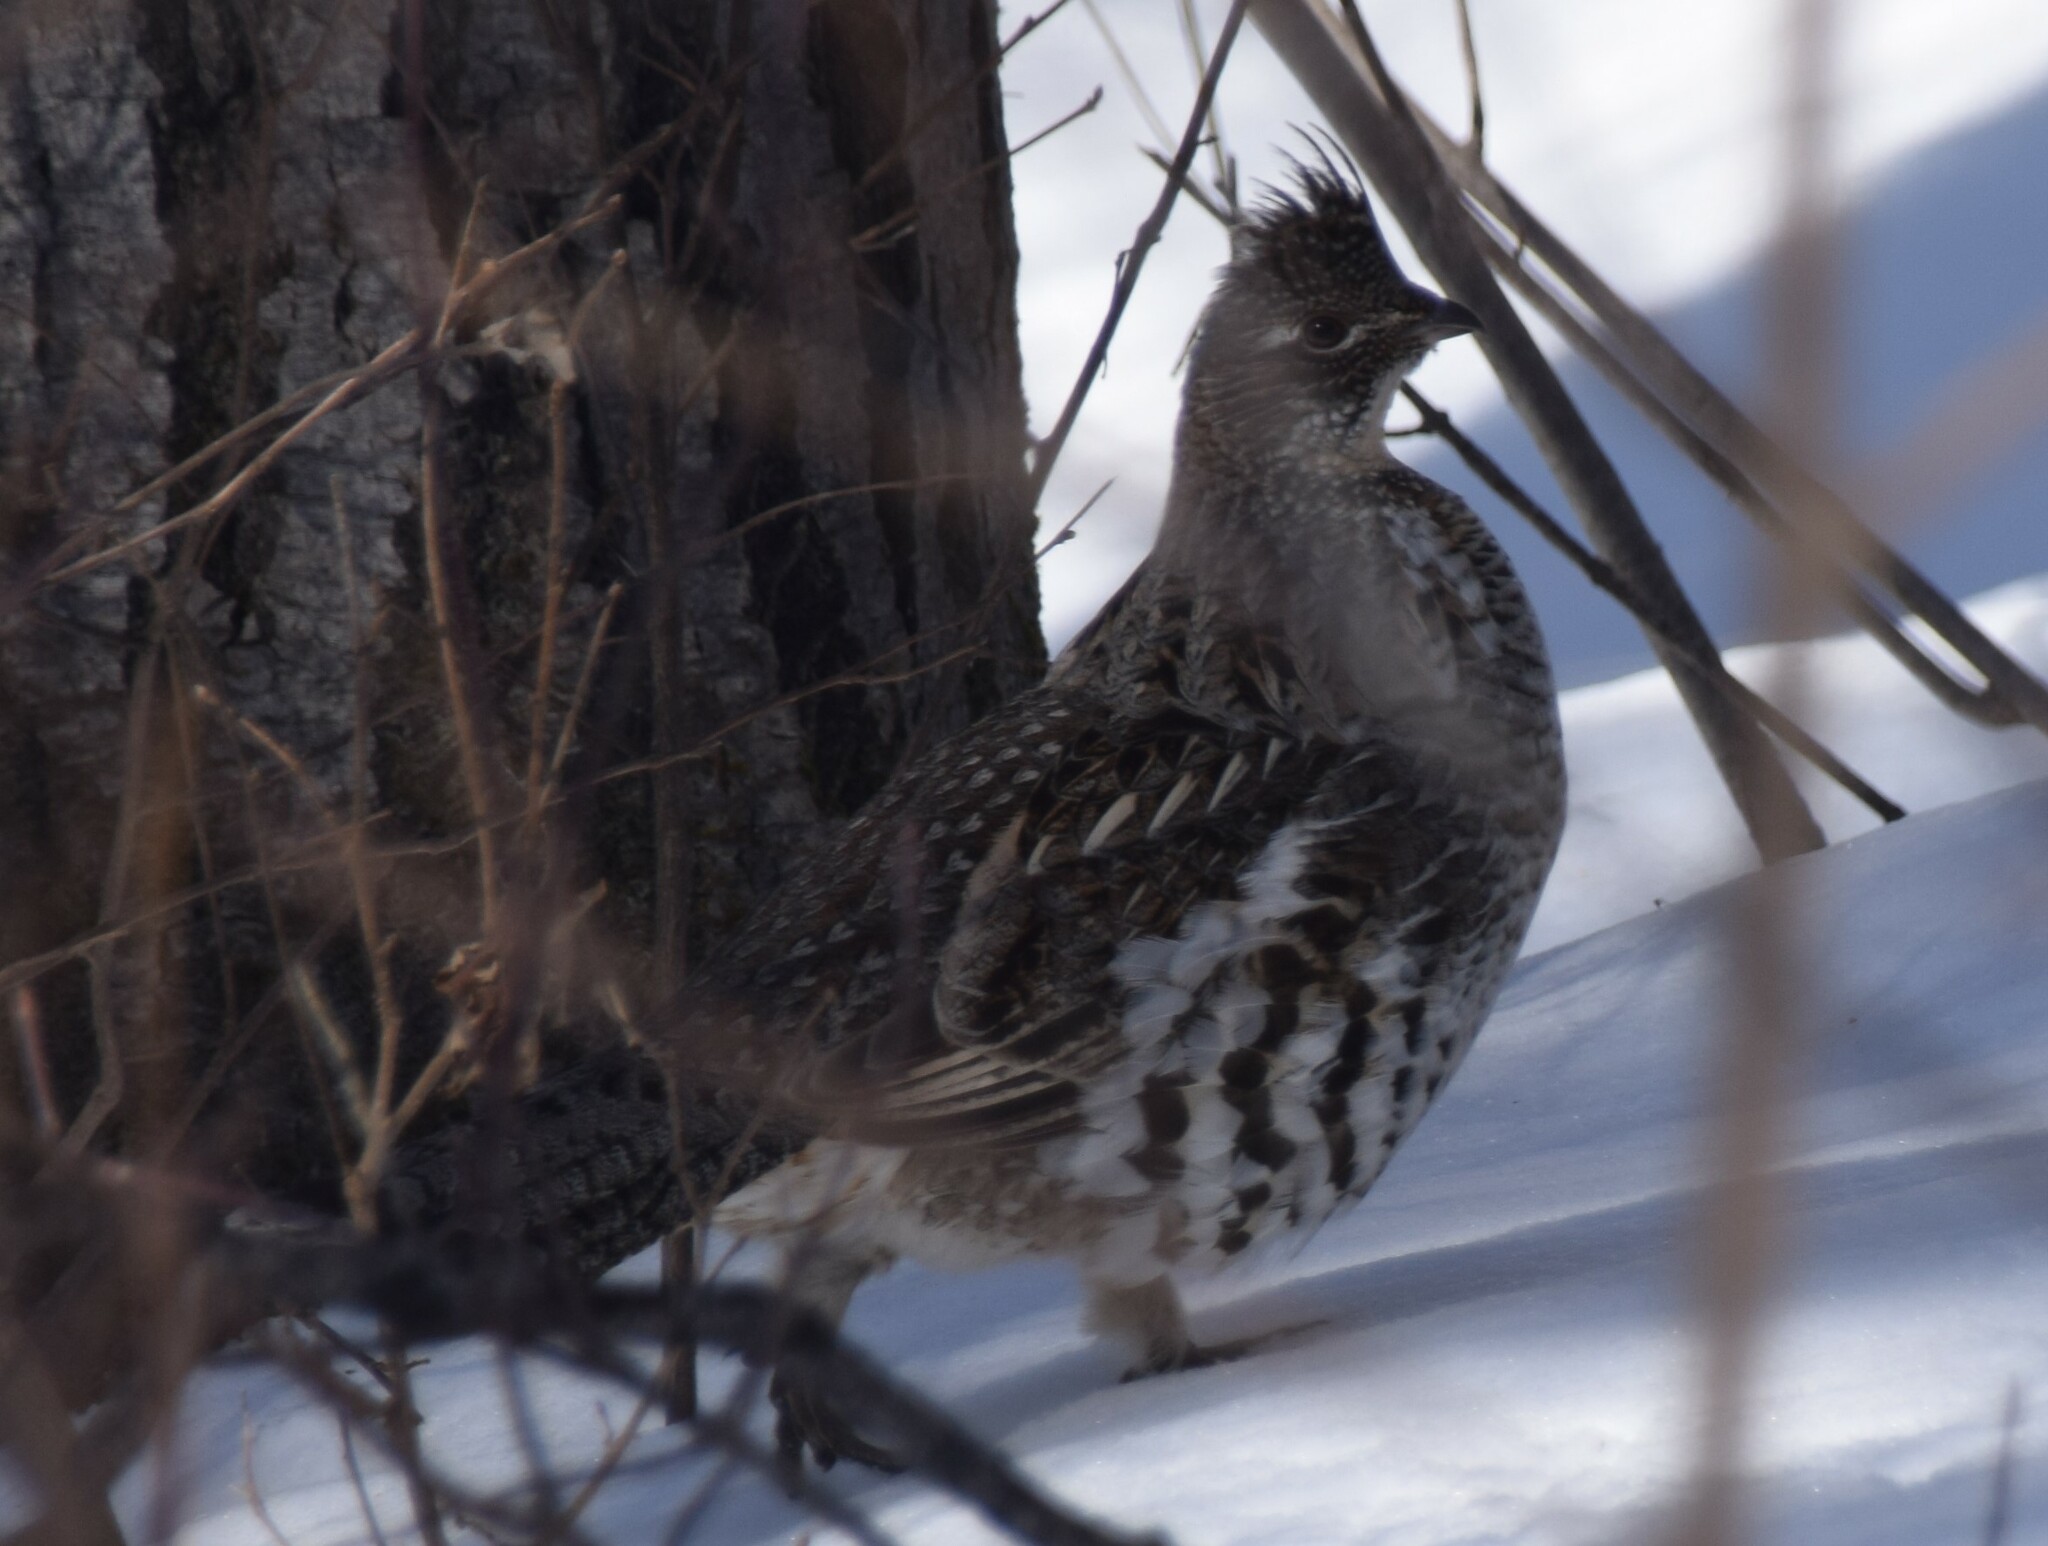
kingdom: Animalia
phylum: Chordata
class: Aves
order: Galliformes
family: Phasianidae
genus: Bonasa
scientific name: Bonasa umbellus
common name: Ruffed grouse
